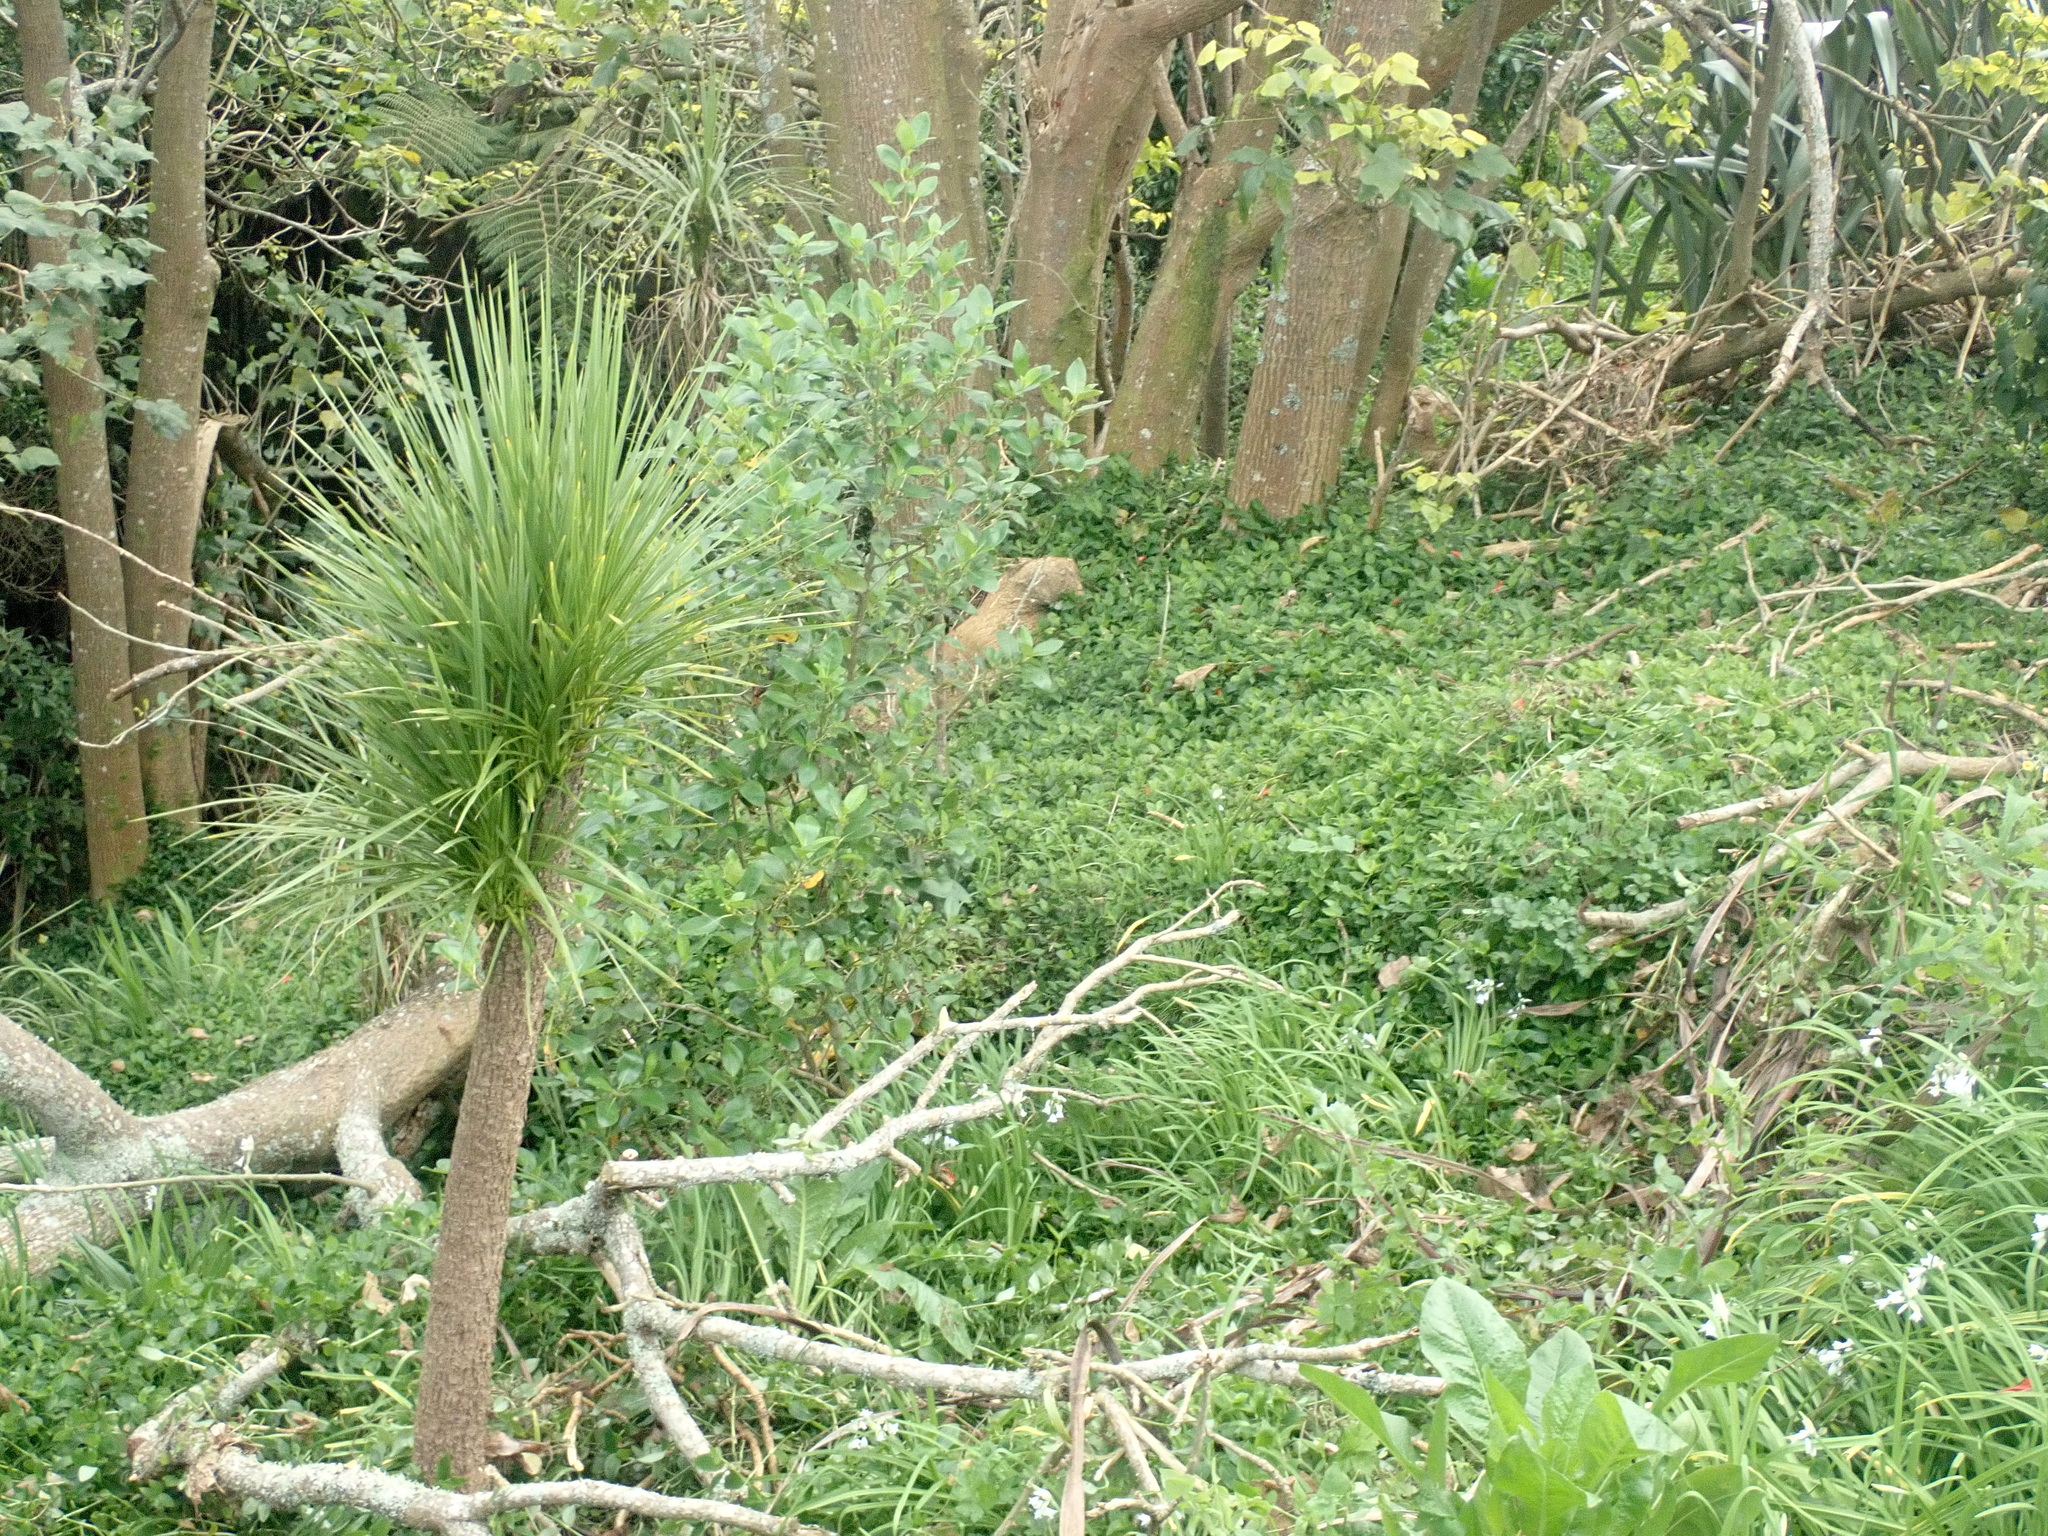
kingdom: Plantae
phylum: Tracheophyta
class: Magnoliopsida
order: Asterales
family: Asteraceae
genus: Helminthotheca
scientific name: Helminthotheca echioides
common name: Ox-tongue
